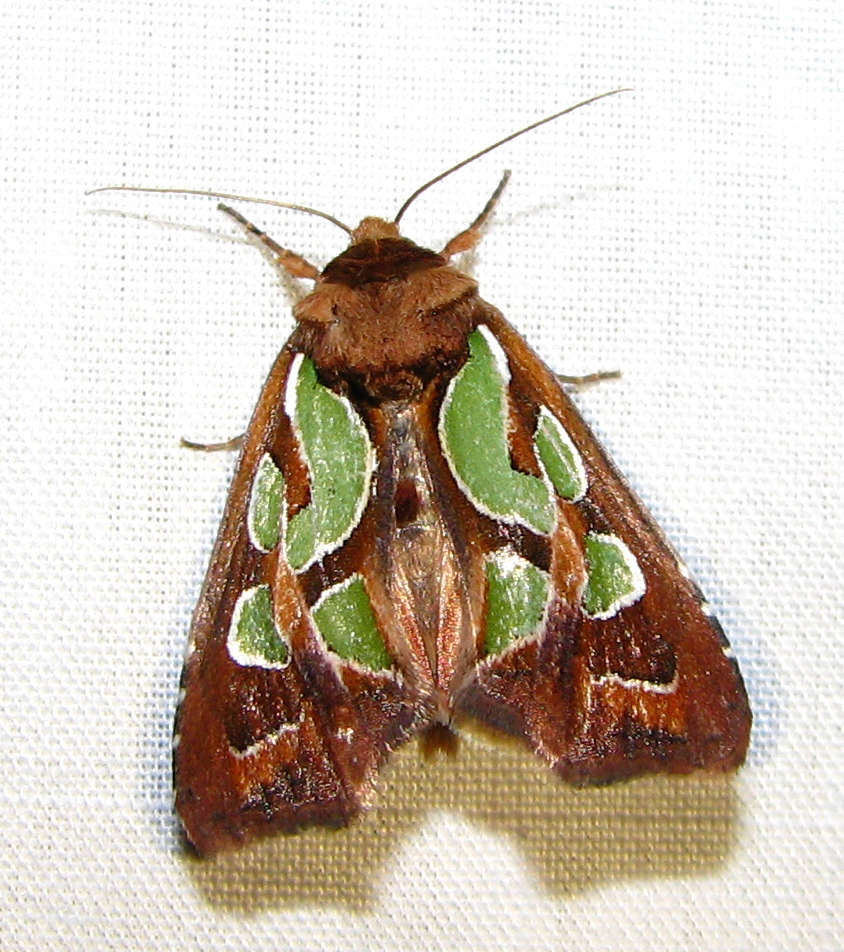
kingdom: Animalia
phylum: Arthropoda
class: Insecta
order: Lepidoptera
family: Noctuidae
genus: Cosmodes
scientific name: Cosmodes elegans
